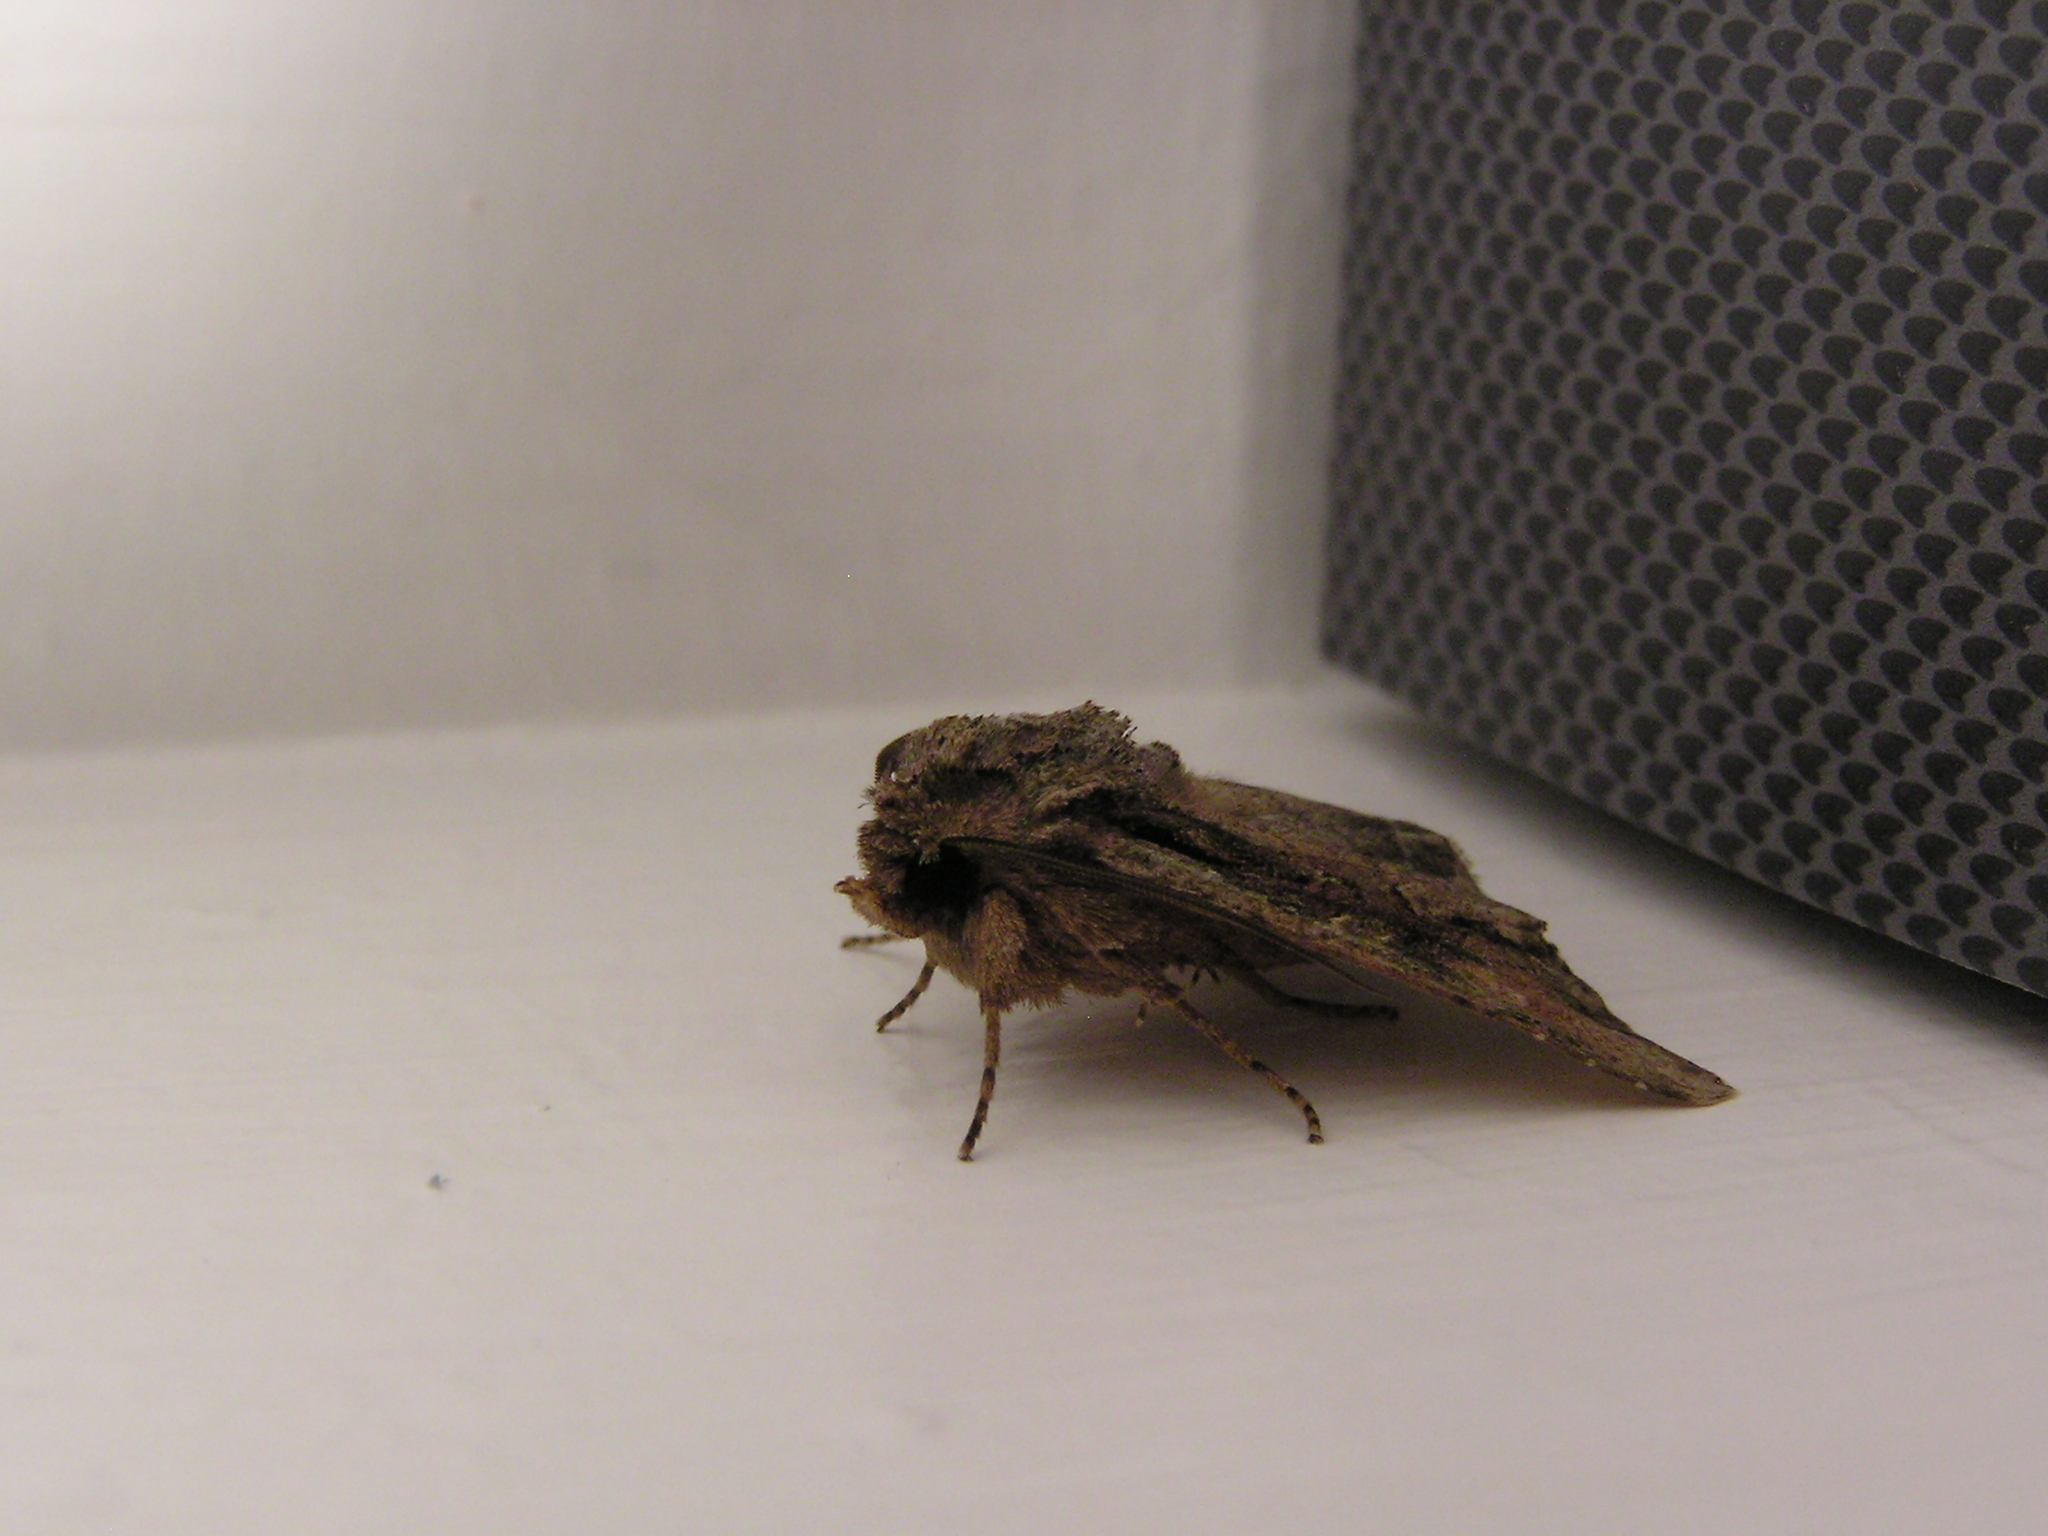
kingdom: Animalia
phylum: Arthropoda
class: Insecta
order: Lepidoptera
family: Noctuidae
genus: Ichneutica
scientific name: Ichneutica mutans
